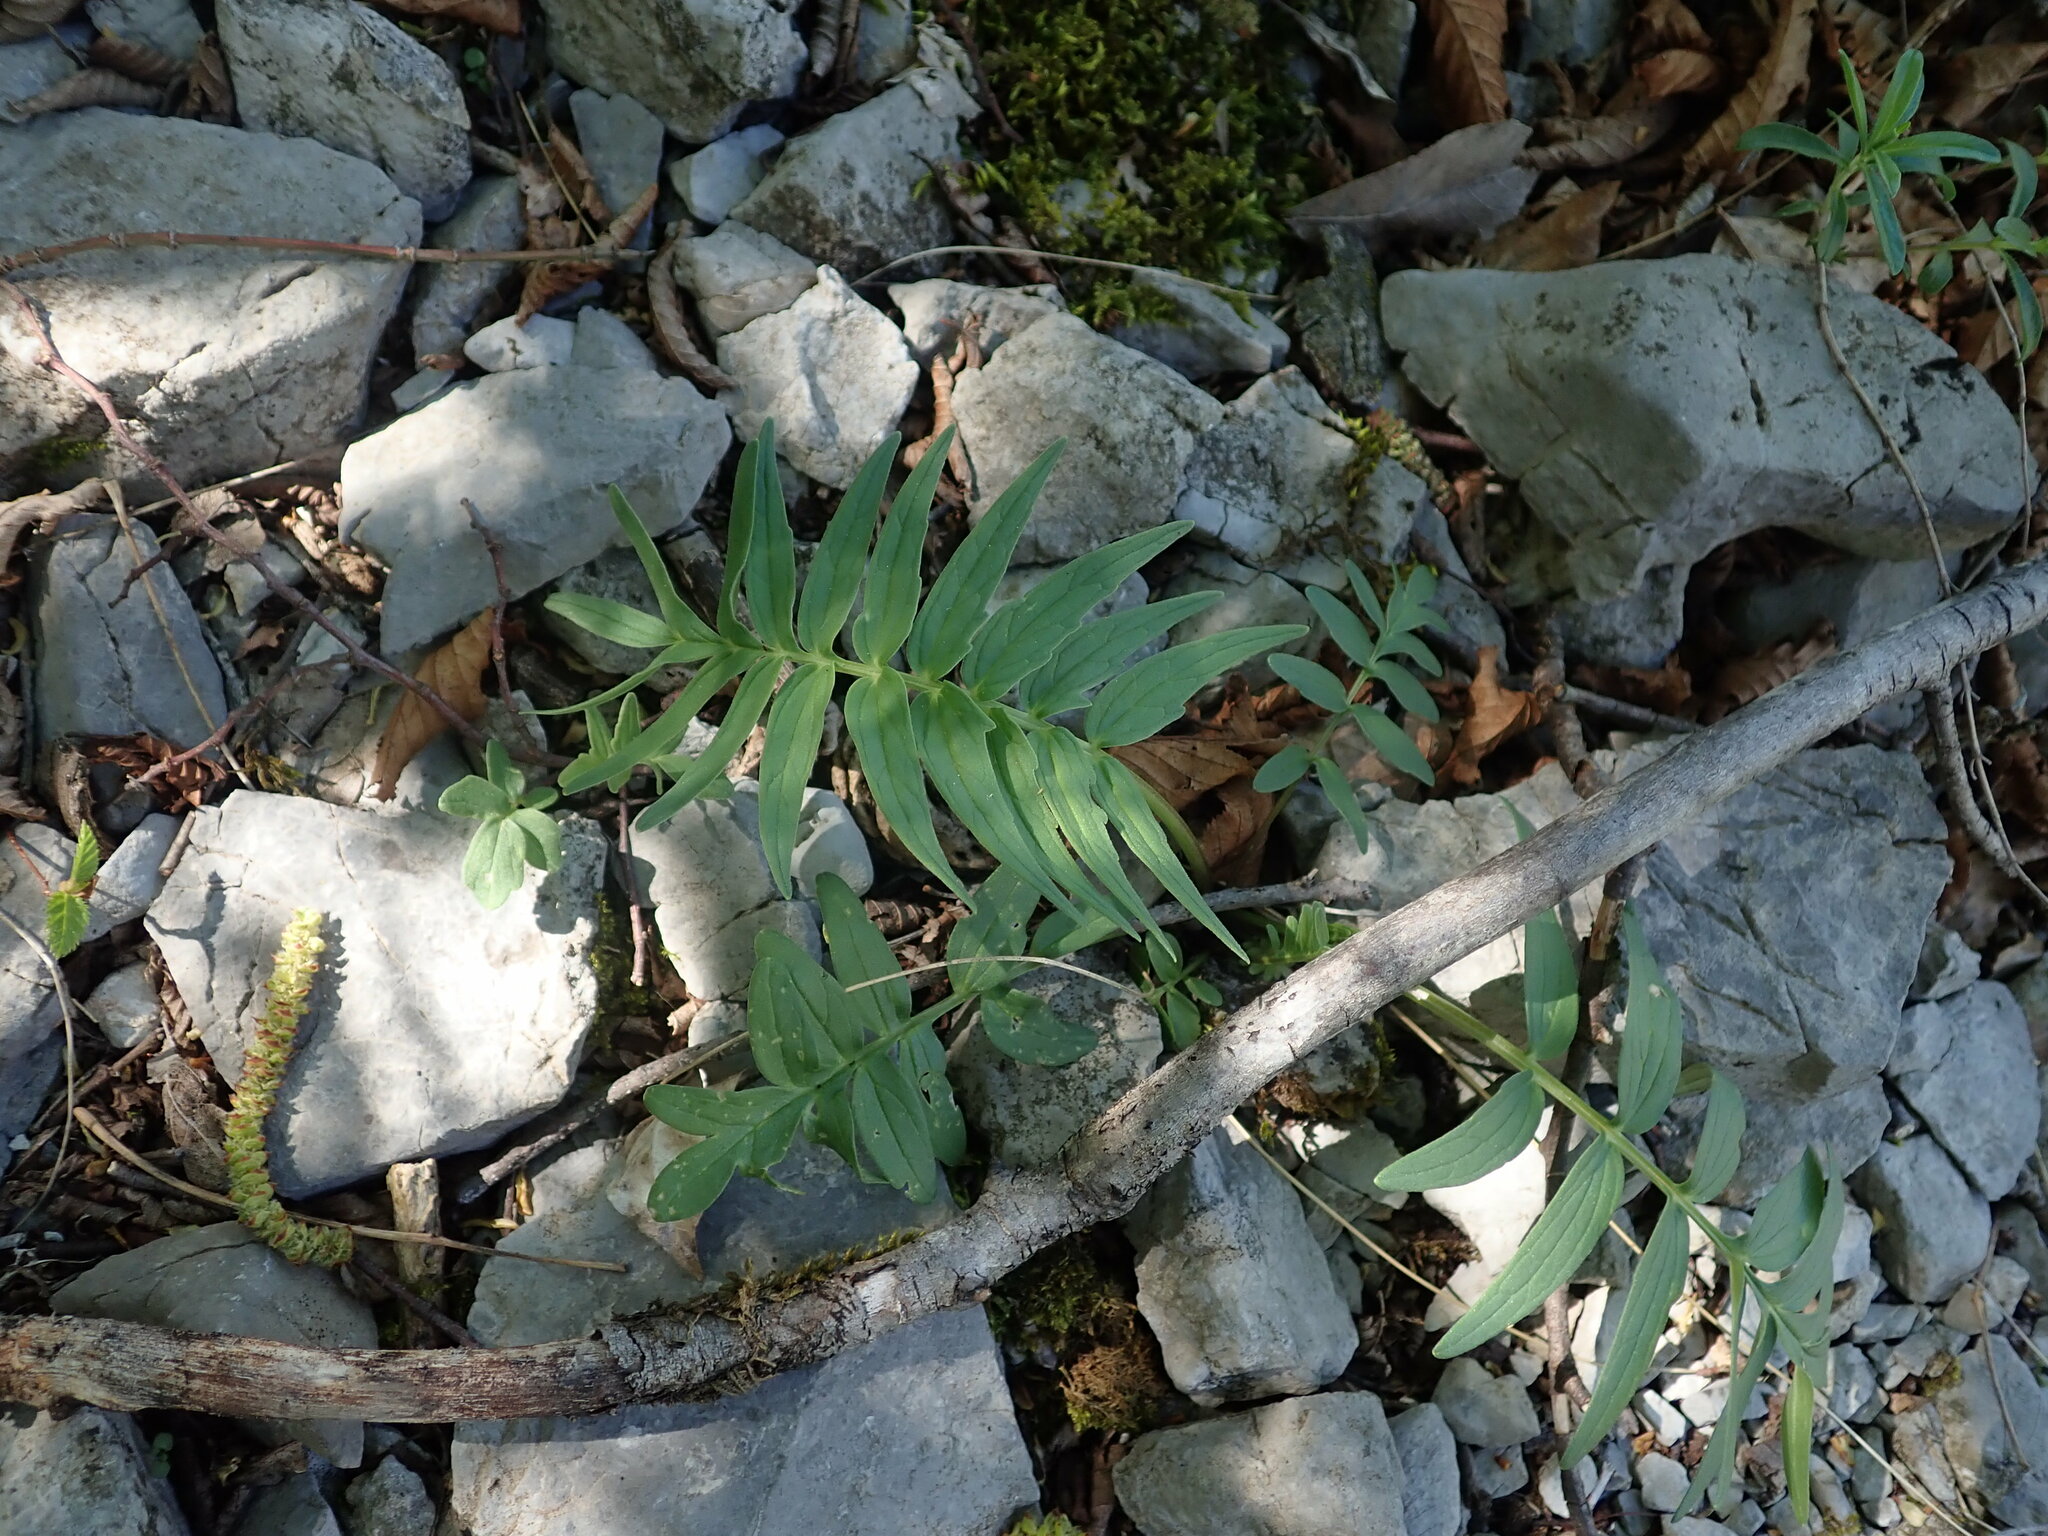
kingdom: Plantae
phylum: Tracheophyta
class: Magnoliopsida
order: Dipsacales
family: Caprifoliaceae
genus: Valeriana
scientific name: Valeriana officinalis
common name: Common valerian
